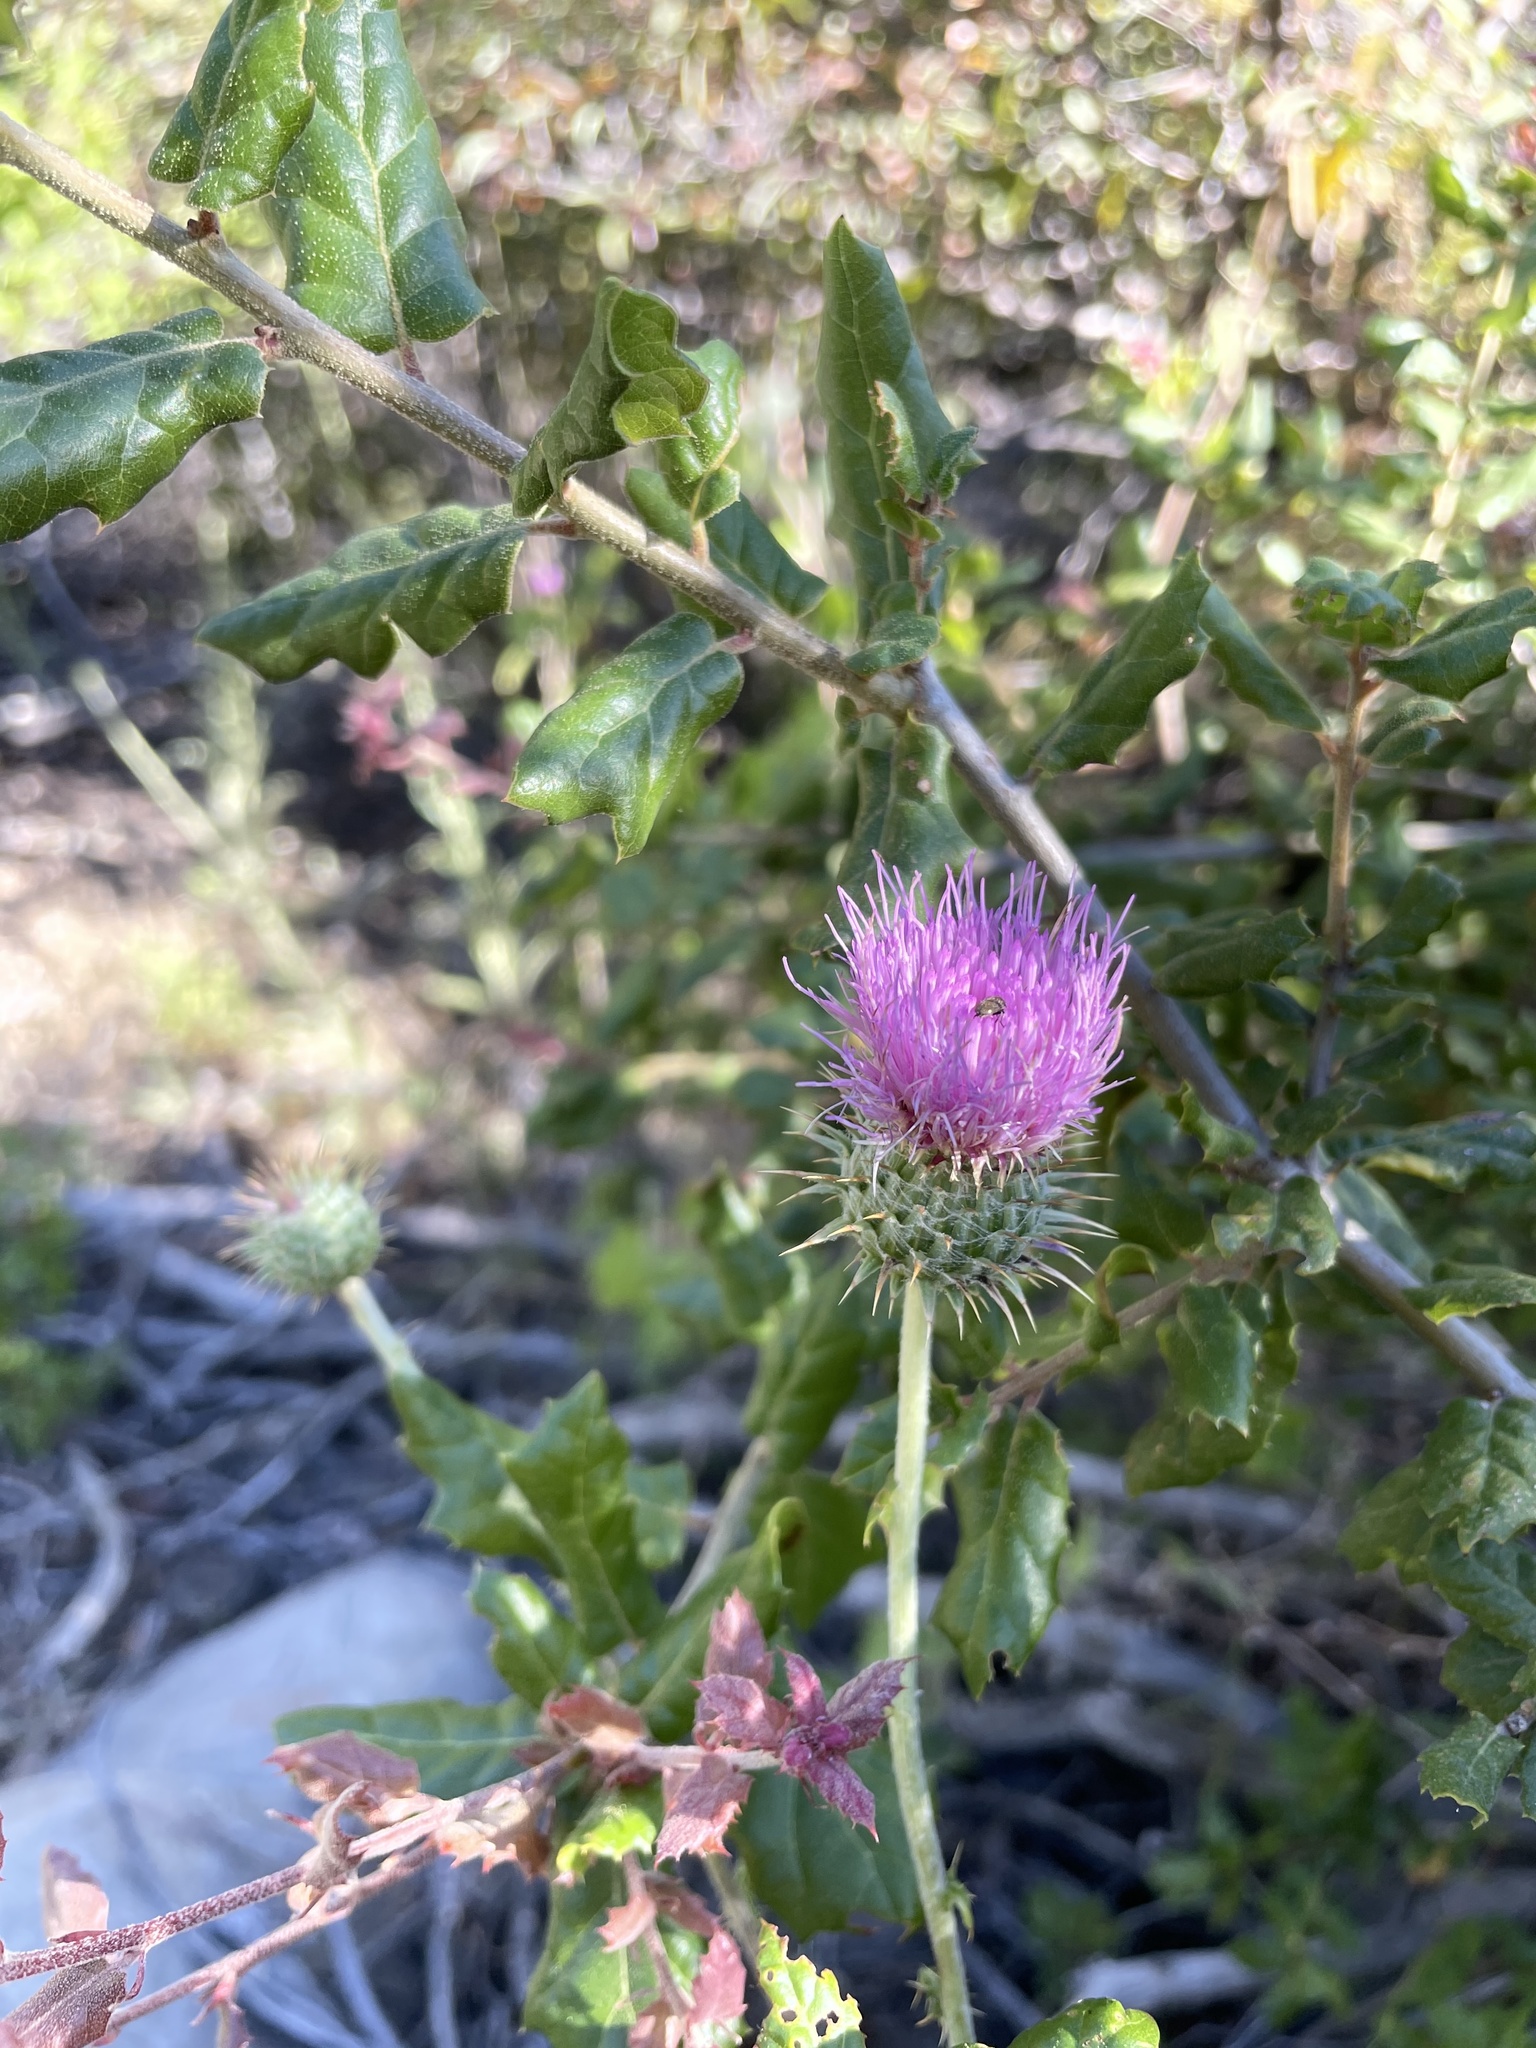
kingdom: Plantae
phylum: Tracheophyta
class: Magnoliopsida
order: Asterales
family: Asteraceae
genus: Cirsium
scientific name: Cirsium occidentale
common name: Western thistle
